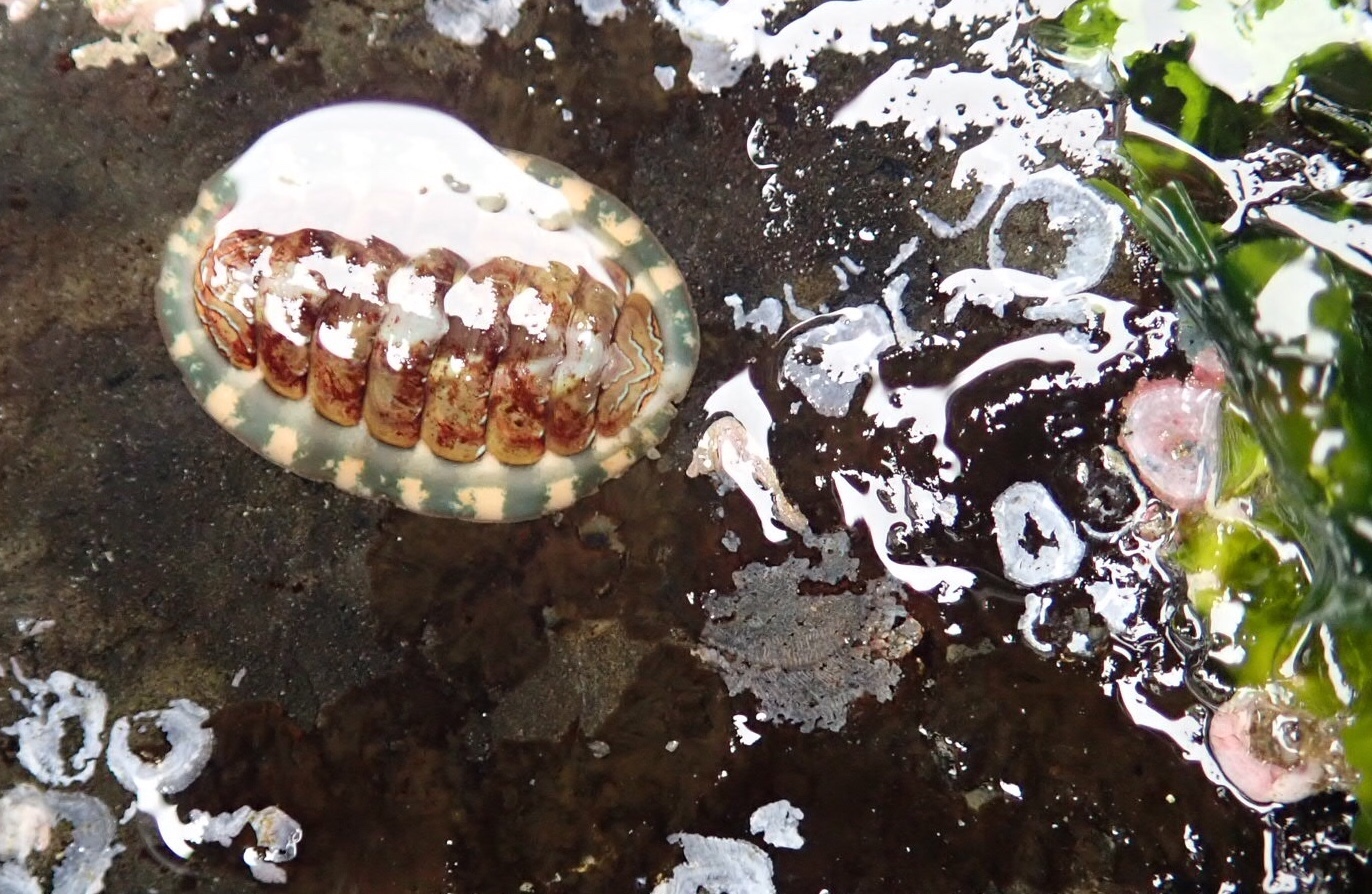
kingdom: Animalia
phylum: Mollusca
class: Polyplacophora
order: Chitonida
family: Tonicellidae
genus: Tonicella
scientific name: Tonicella lineata
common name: Lined chiton
